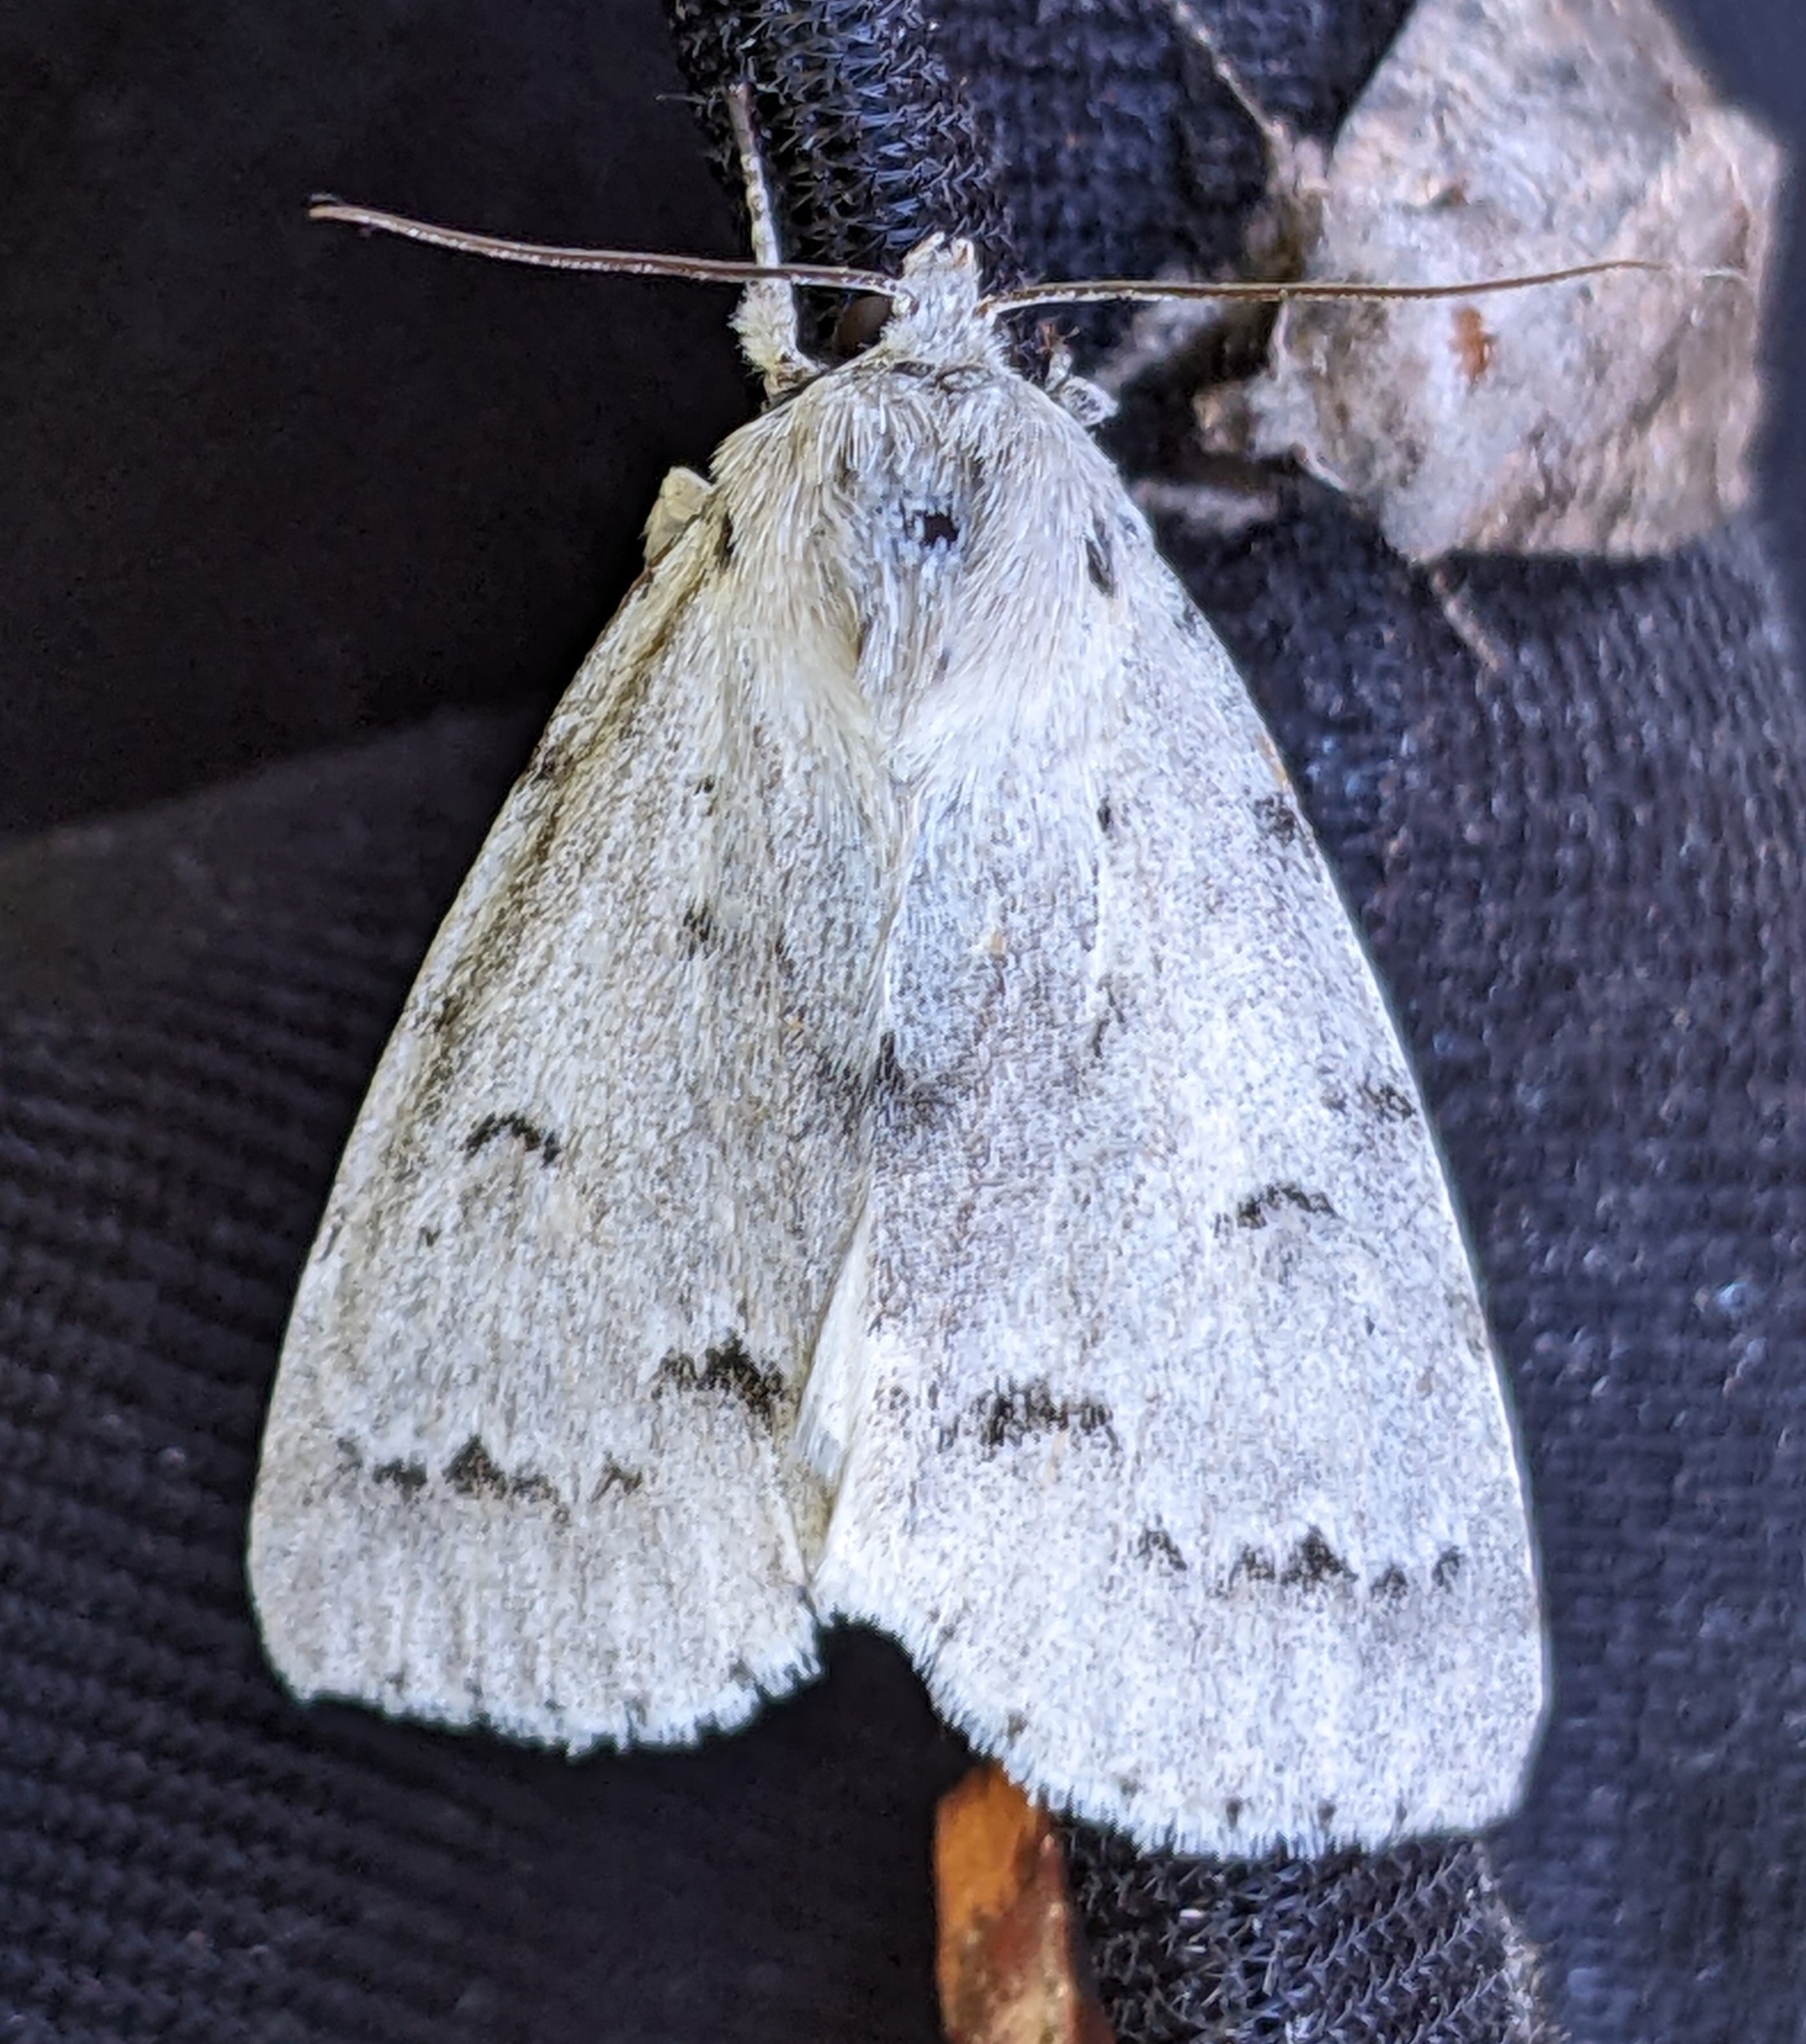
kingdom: Animalia
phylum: Arthropoda
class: Insecta
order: Lepidoptera
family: Noctuidae
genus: Acronicta
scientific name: Acronicta innotata
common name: Unmarked dagger
